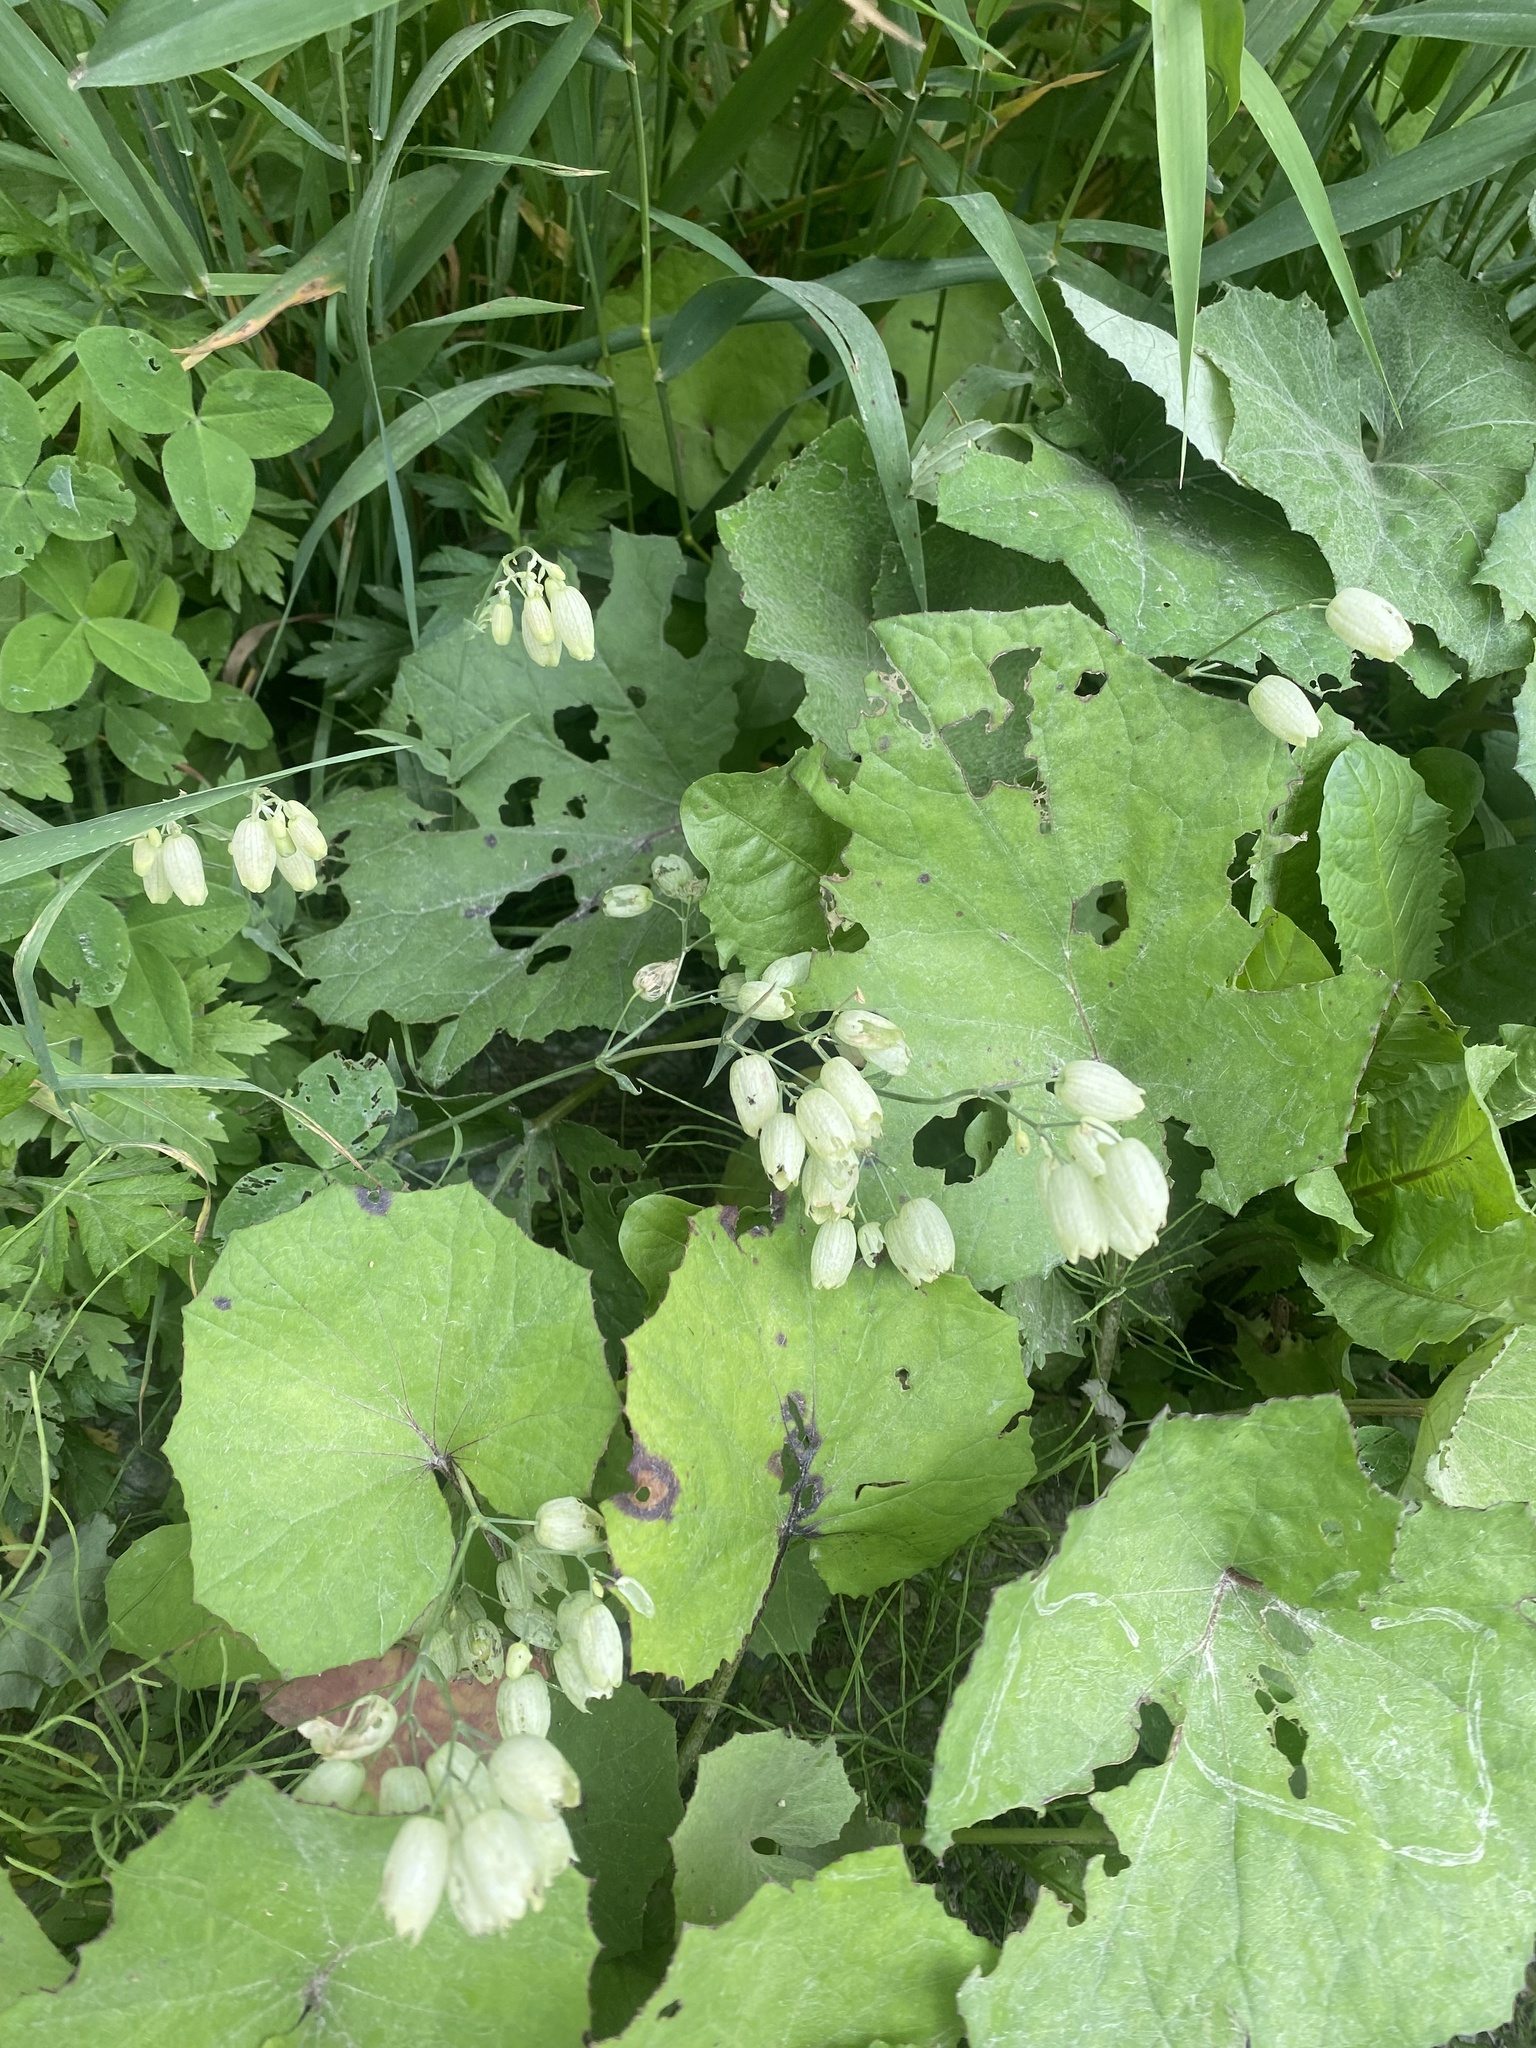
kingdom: Plantae
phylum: Tracheophyta
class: Magnoliopsida
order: Caryophyllales
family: Caryophyllaceae
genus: Silene
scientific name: Silene vulgaris
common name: Bladder campion
